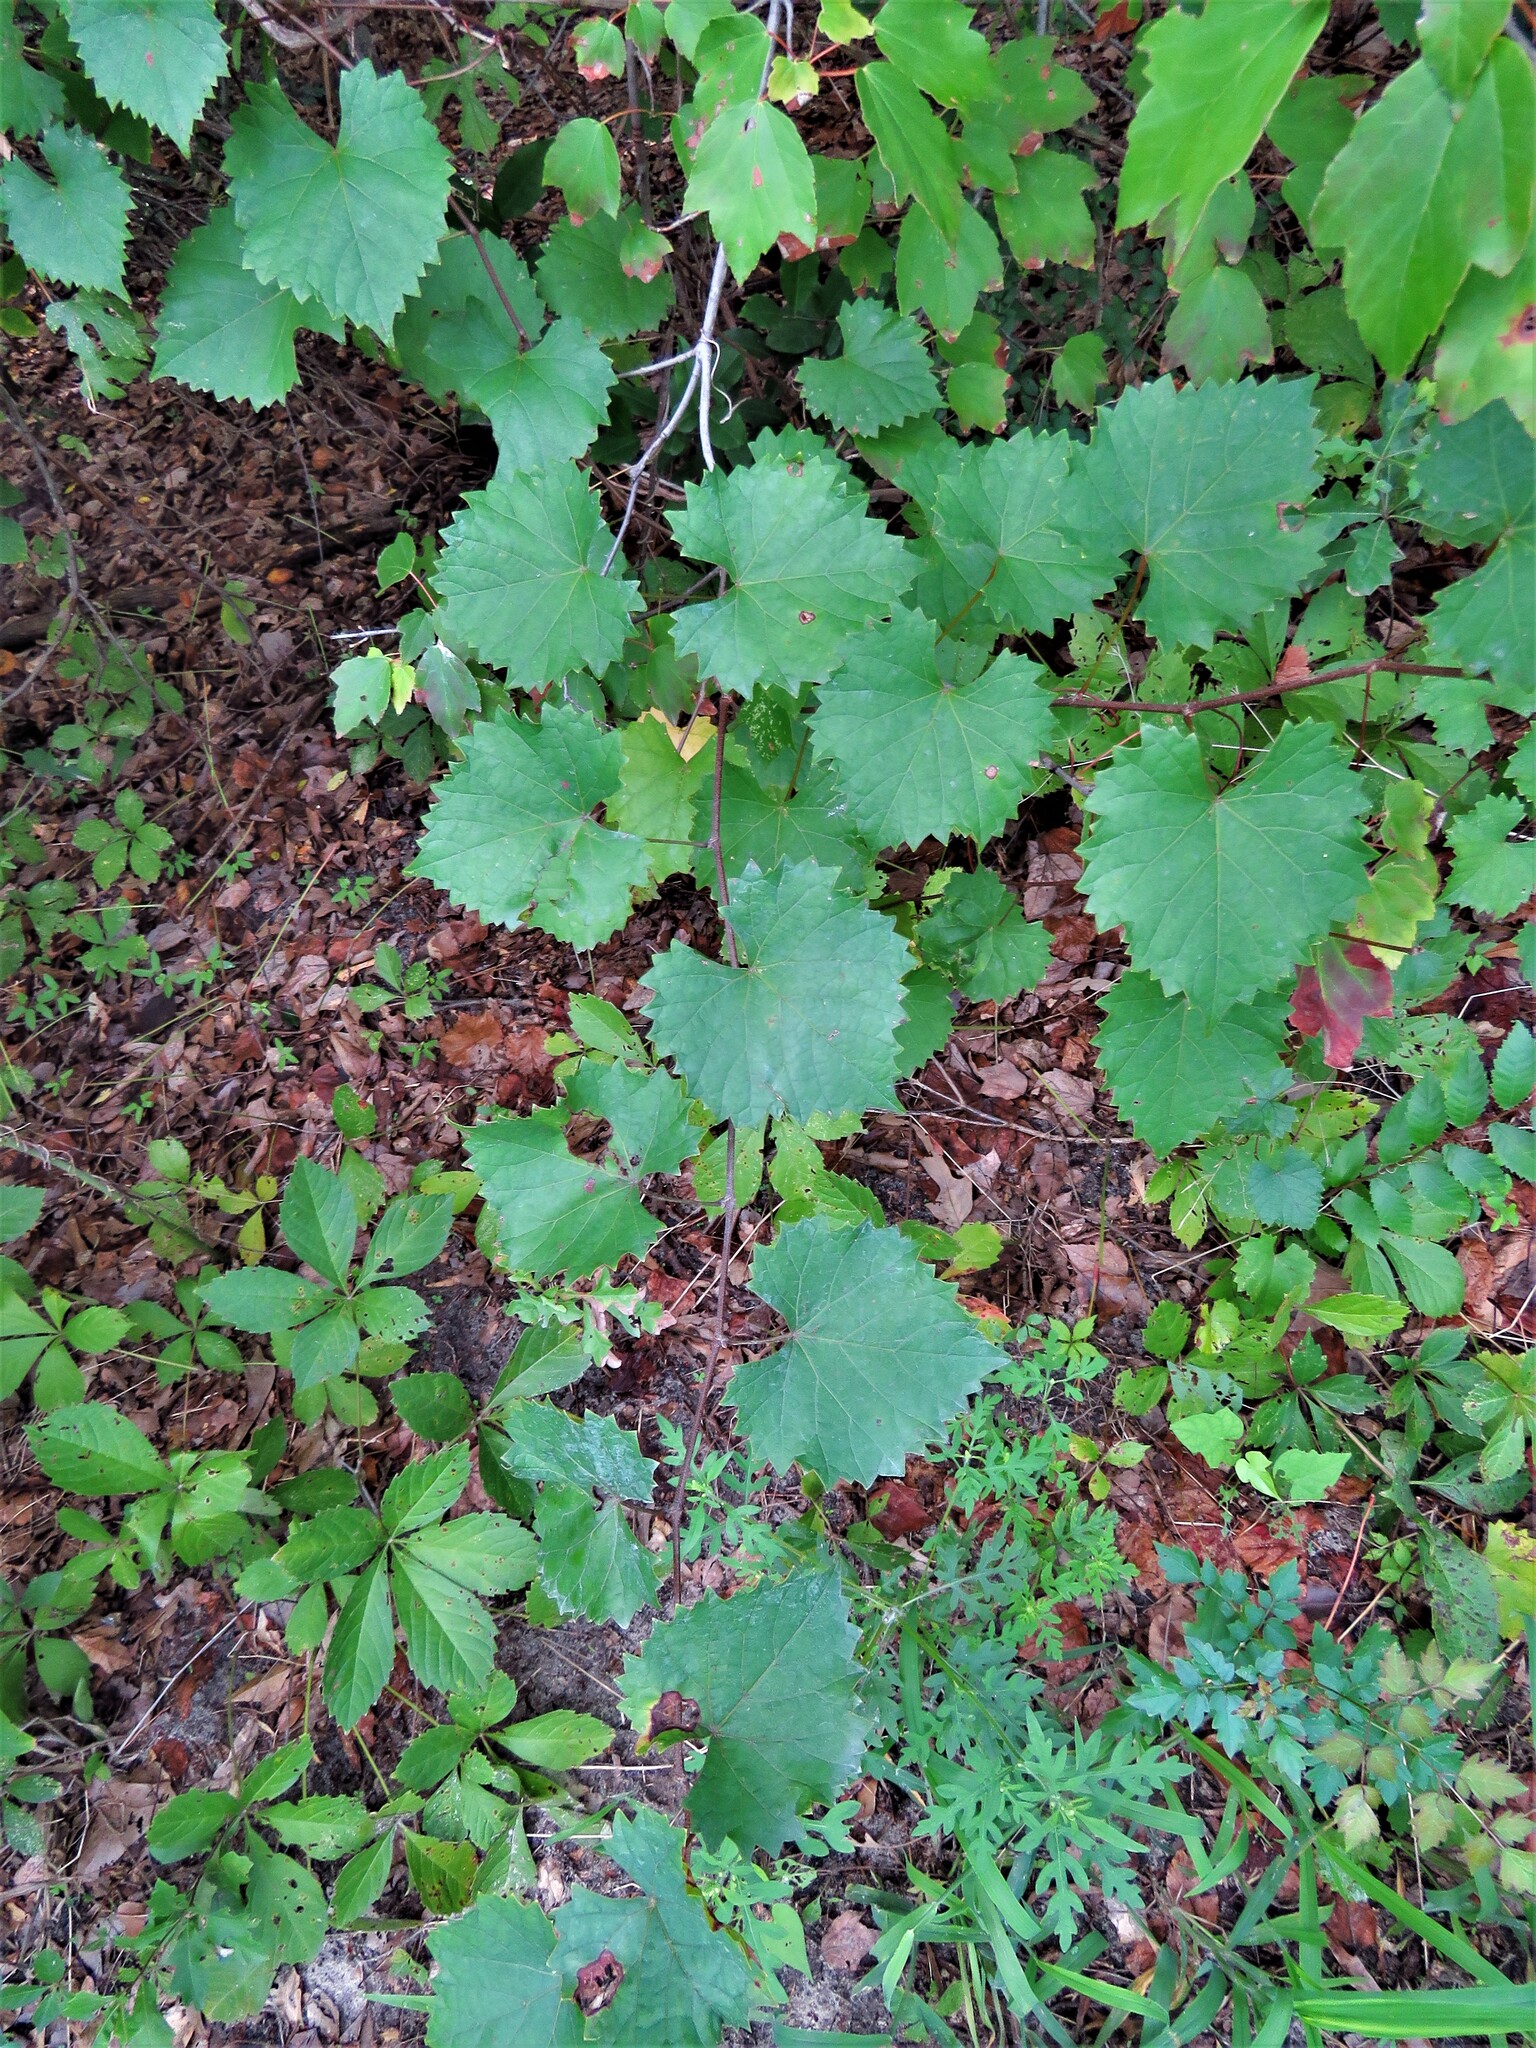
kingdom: Plantae
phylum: Tracheophyta
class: Magnoliopsida
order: Vitales
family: Vitaceae
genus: Vitis
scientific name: Vitis rotundifolia
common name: Muscadine grape
